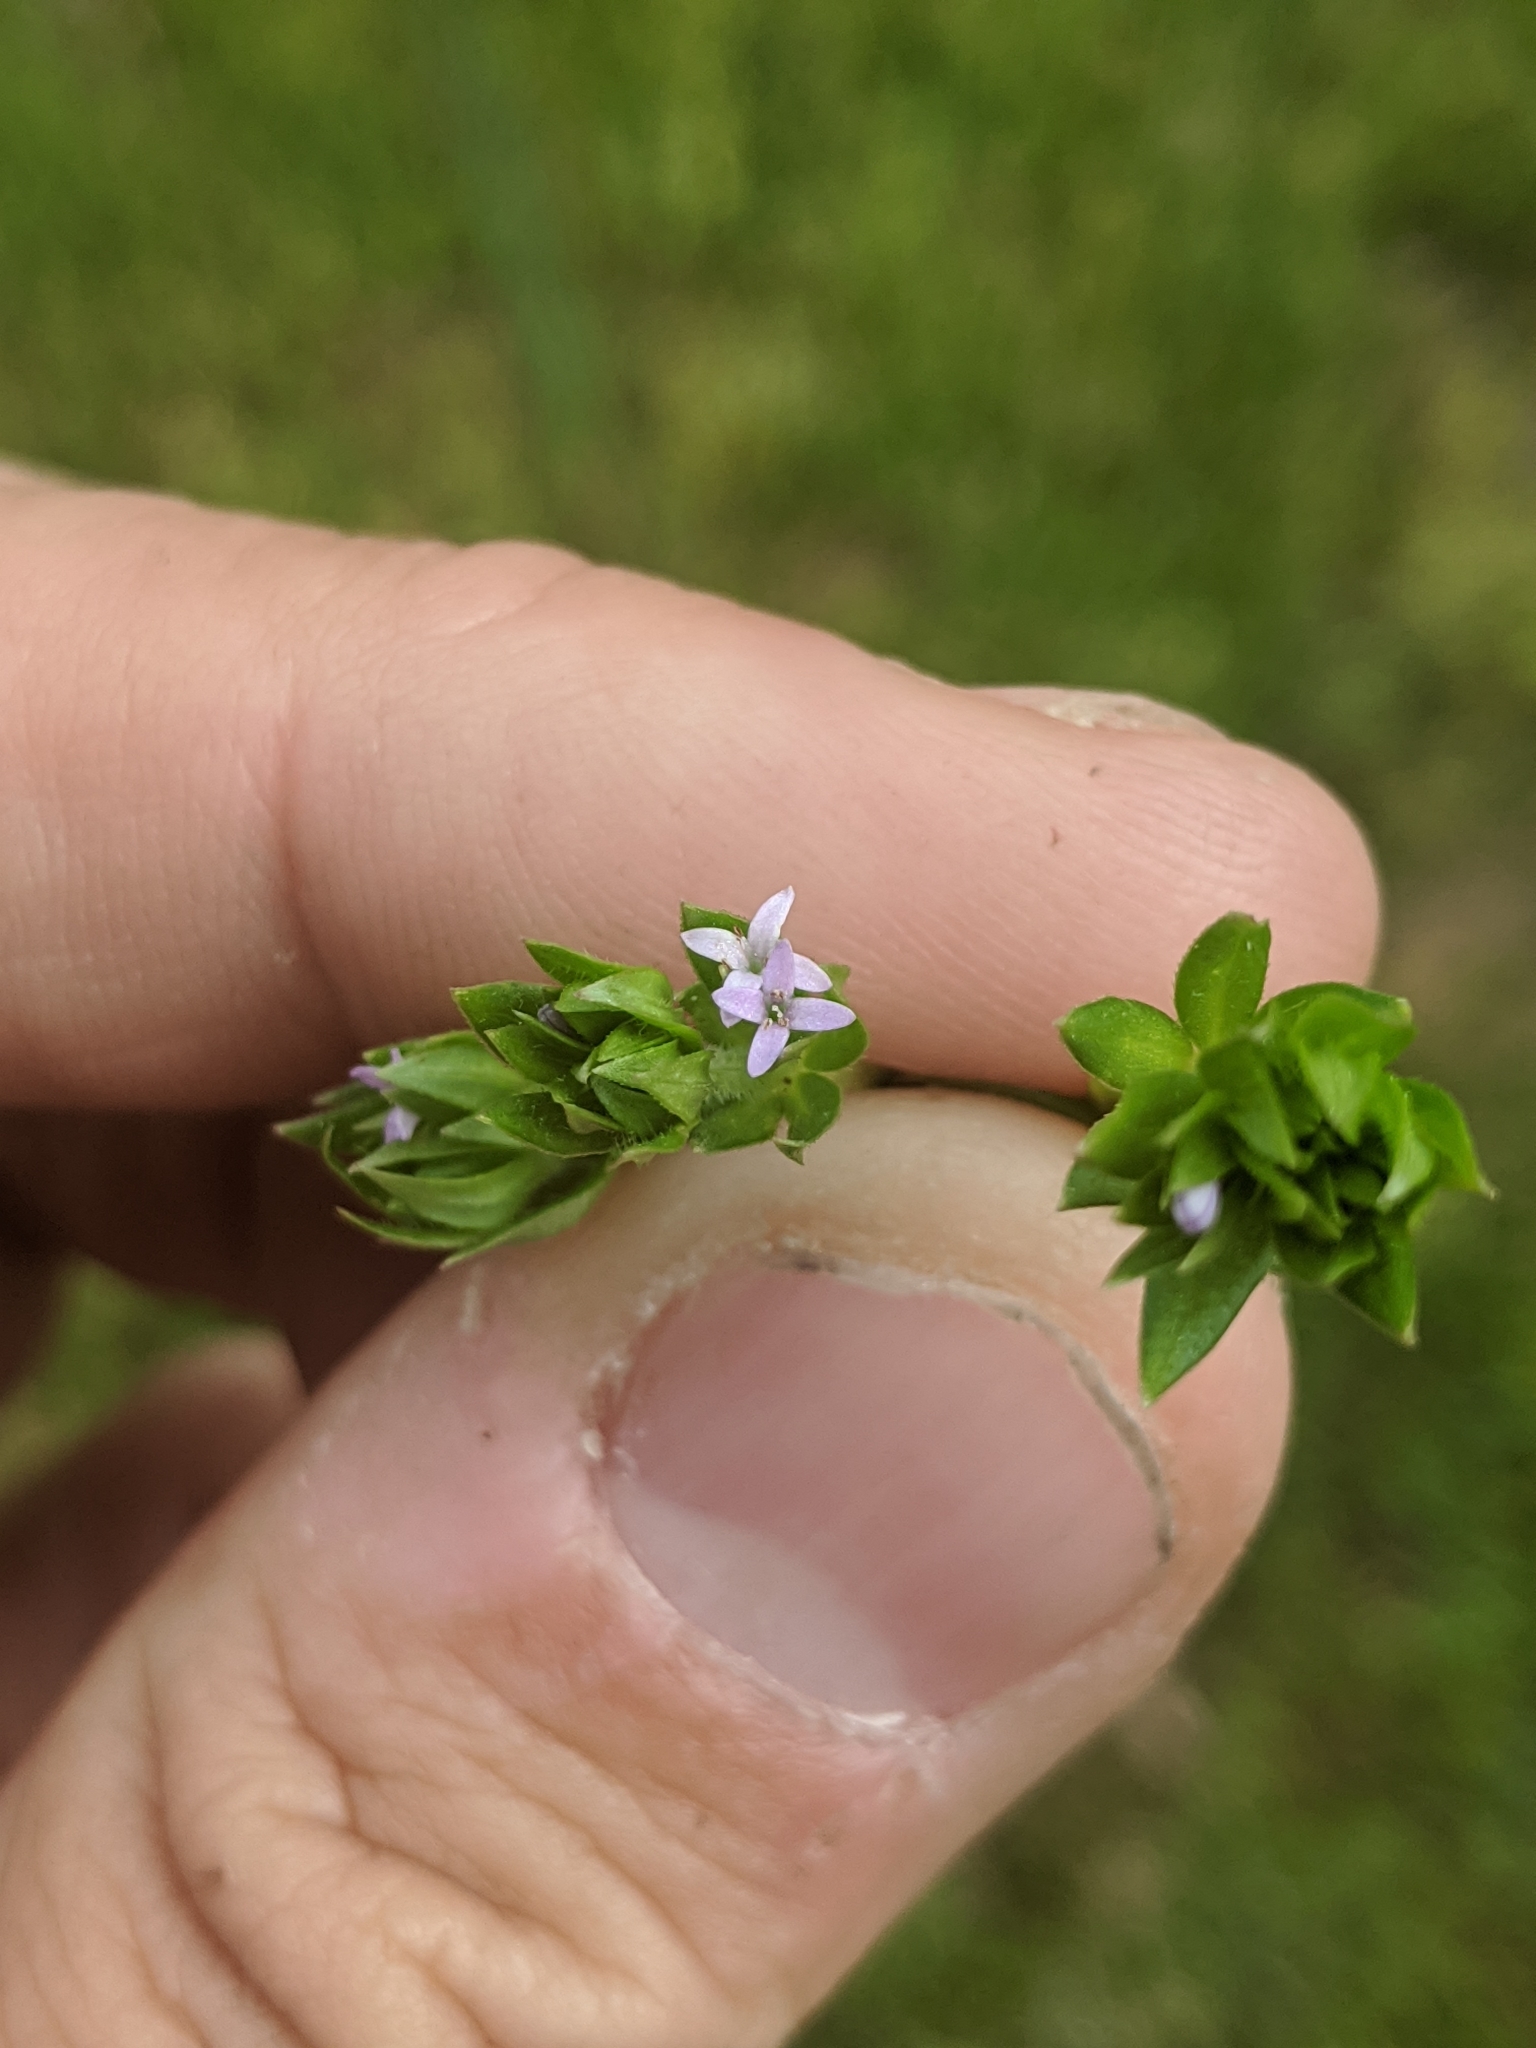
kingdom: Plantae
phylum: Tracheophyta
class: Magnoliopsida
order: Gentianales
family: Rubiaceae
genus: Sherardia
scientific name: Sherardia arvensis
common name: Field madder
